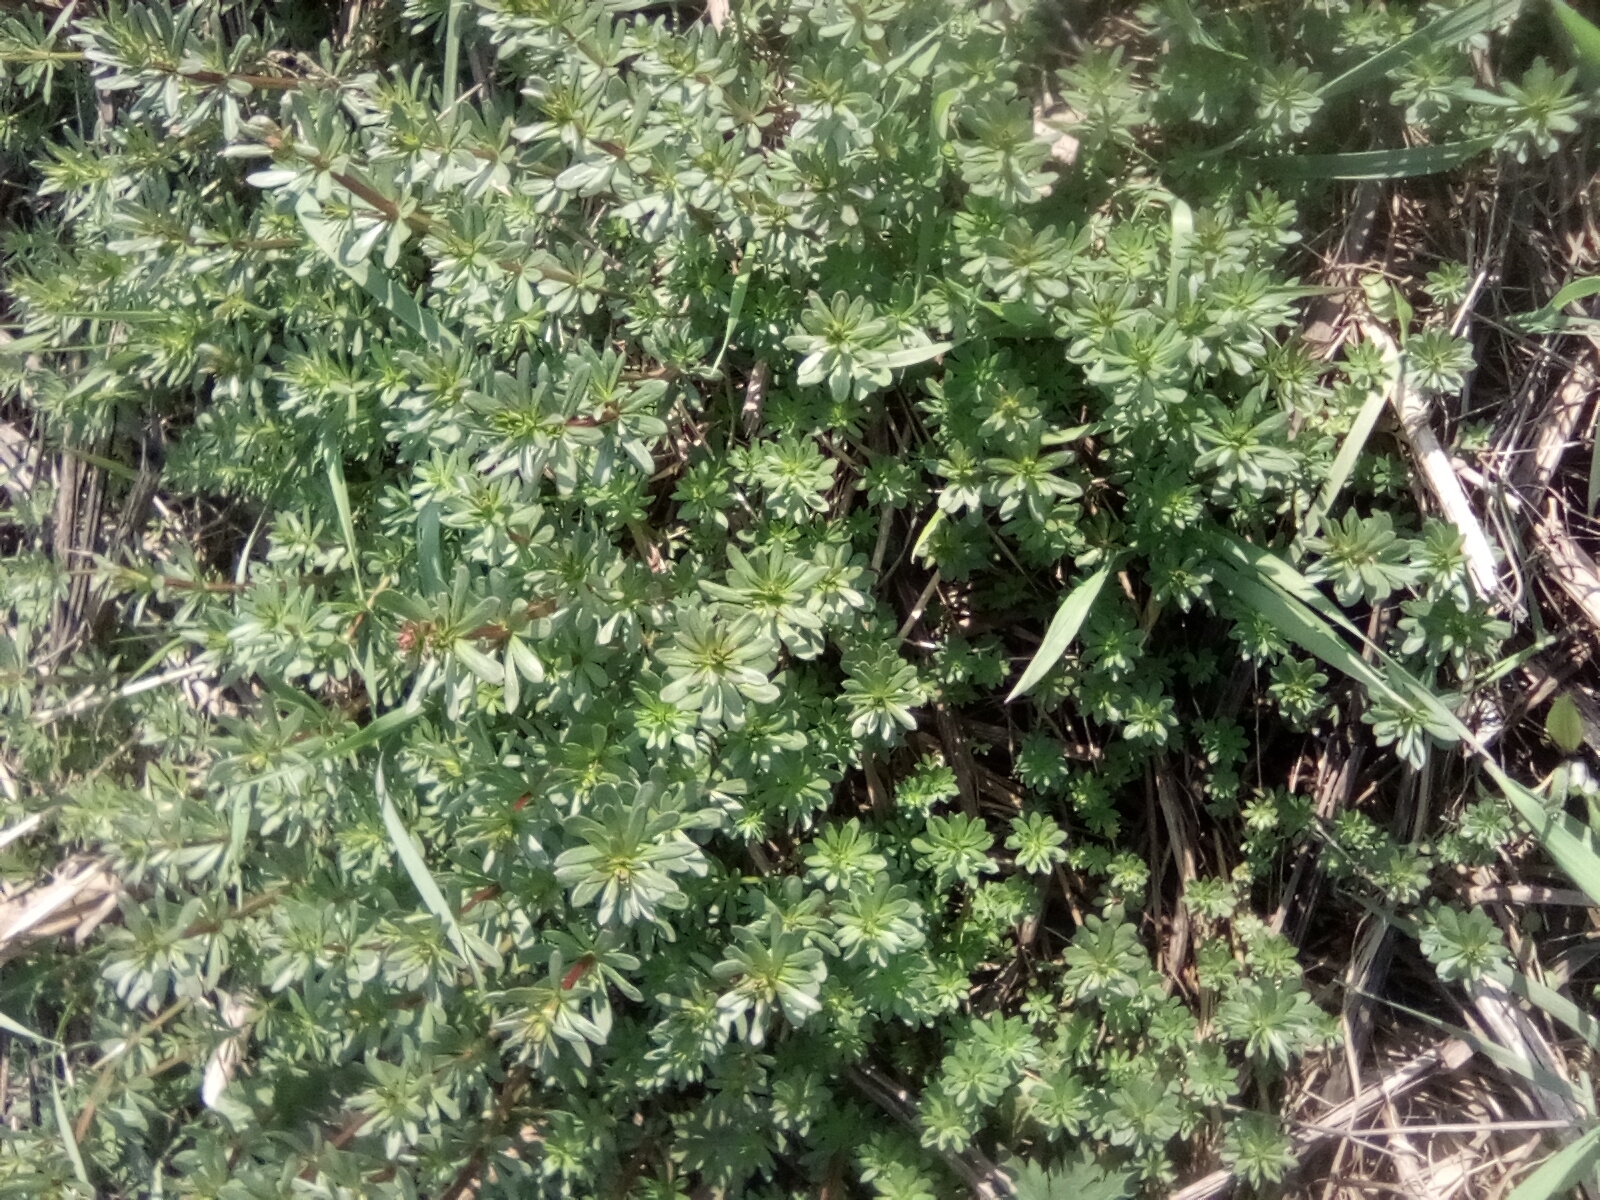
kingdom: Plantae
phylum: Tracheophyta
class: Magnoliopsida
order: Gentianales
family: Rubiaceae
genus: Galium
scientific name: Galium mollugo
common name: Hedge bedstraw
